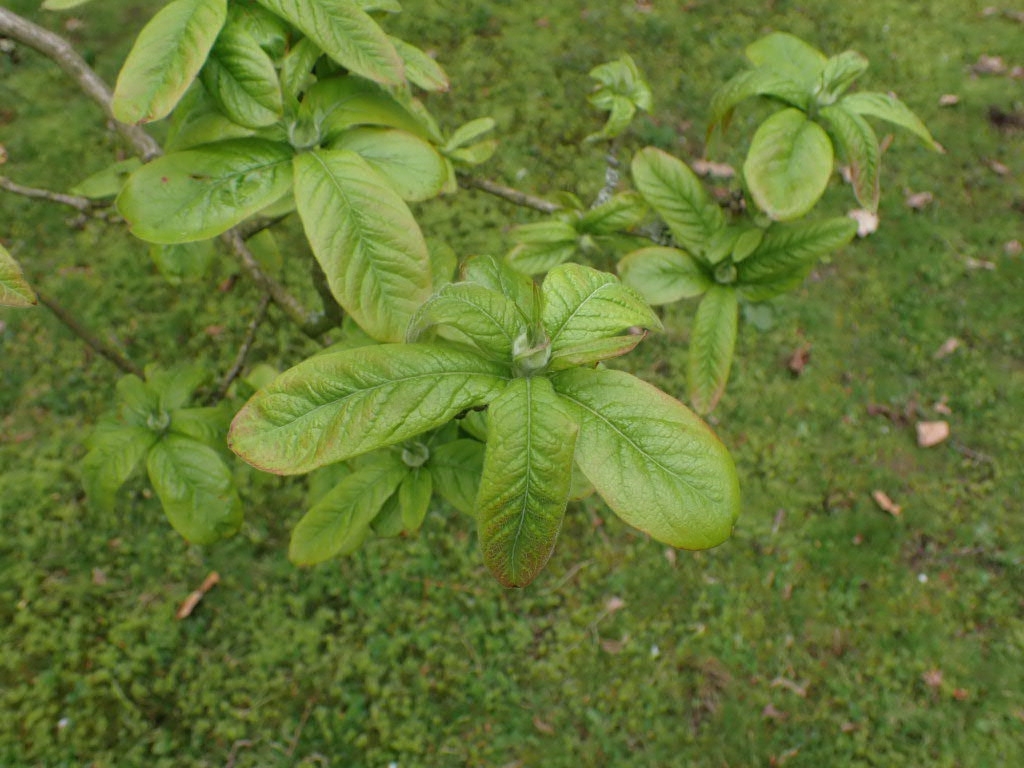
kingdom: Plantae
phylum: Tracheophyta
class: Magnoliopsida
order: Rosales
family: Rosaceae
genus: Mespilus
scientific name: Mespilus germanica
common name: Medlar
